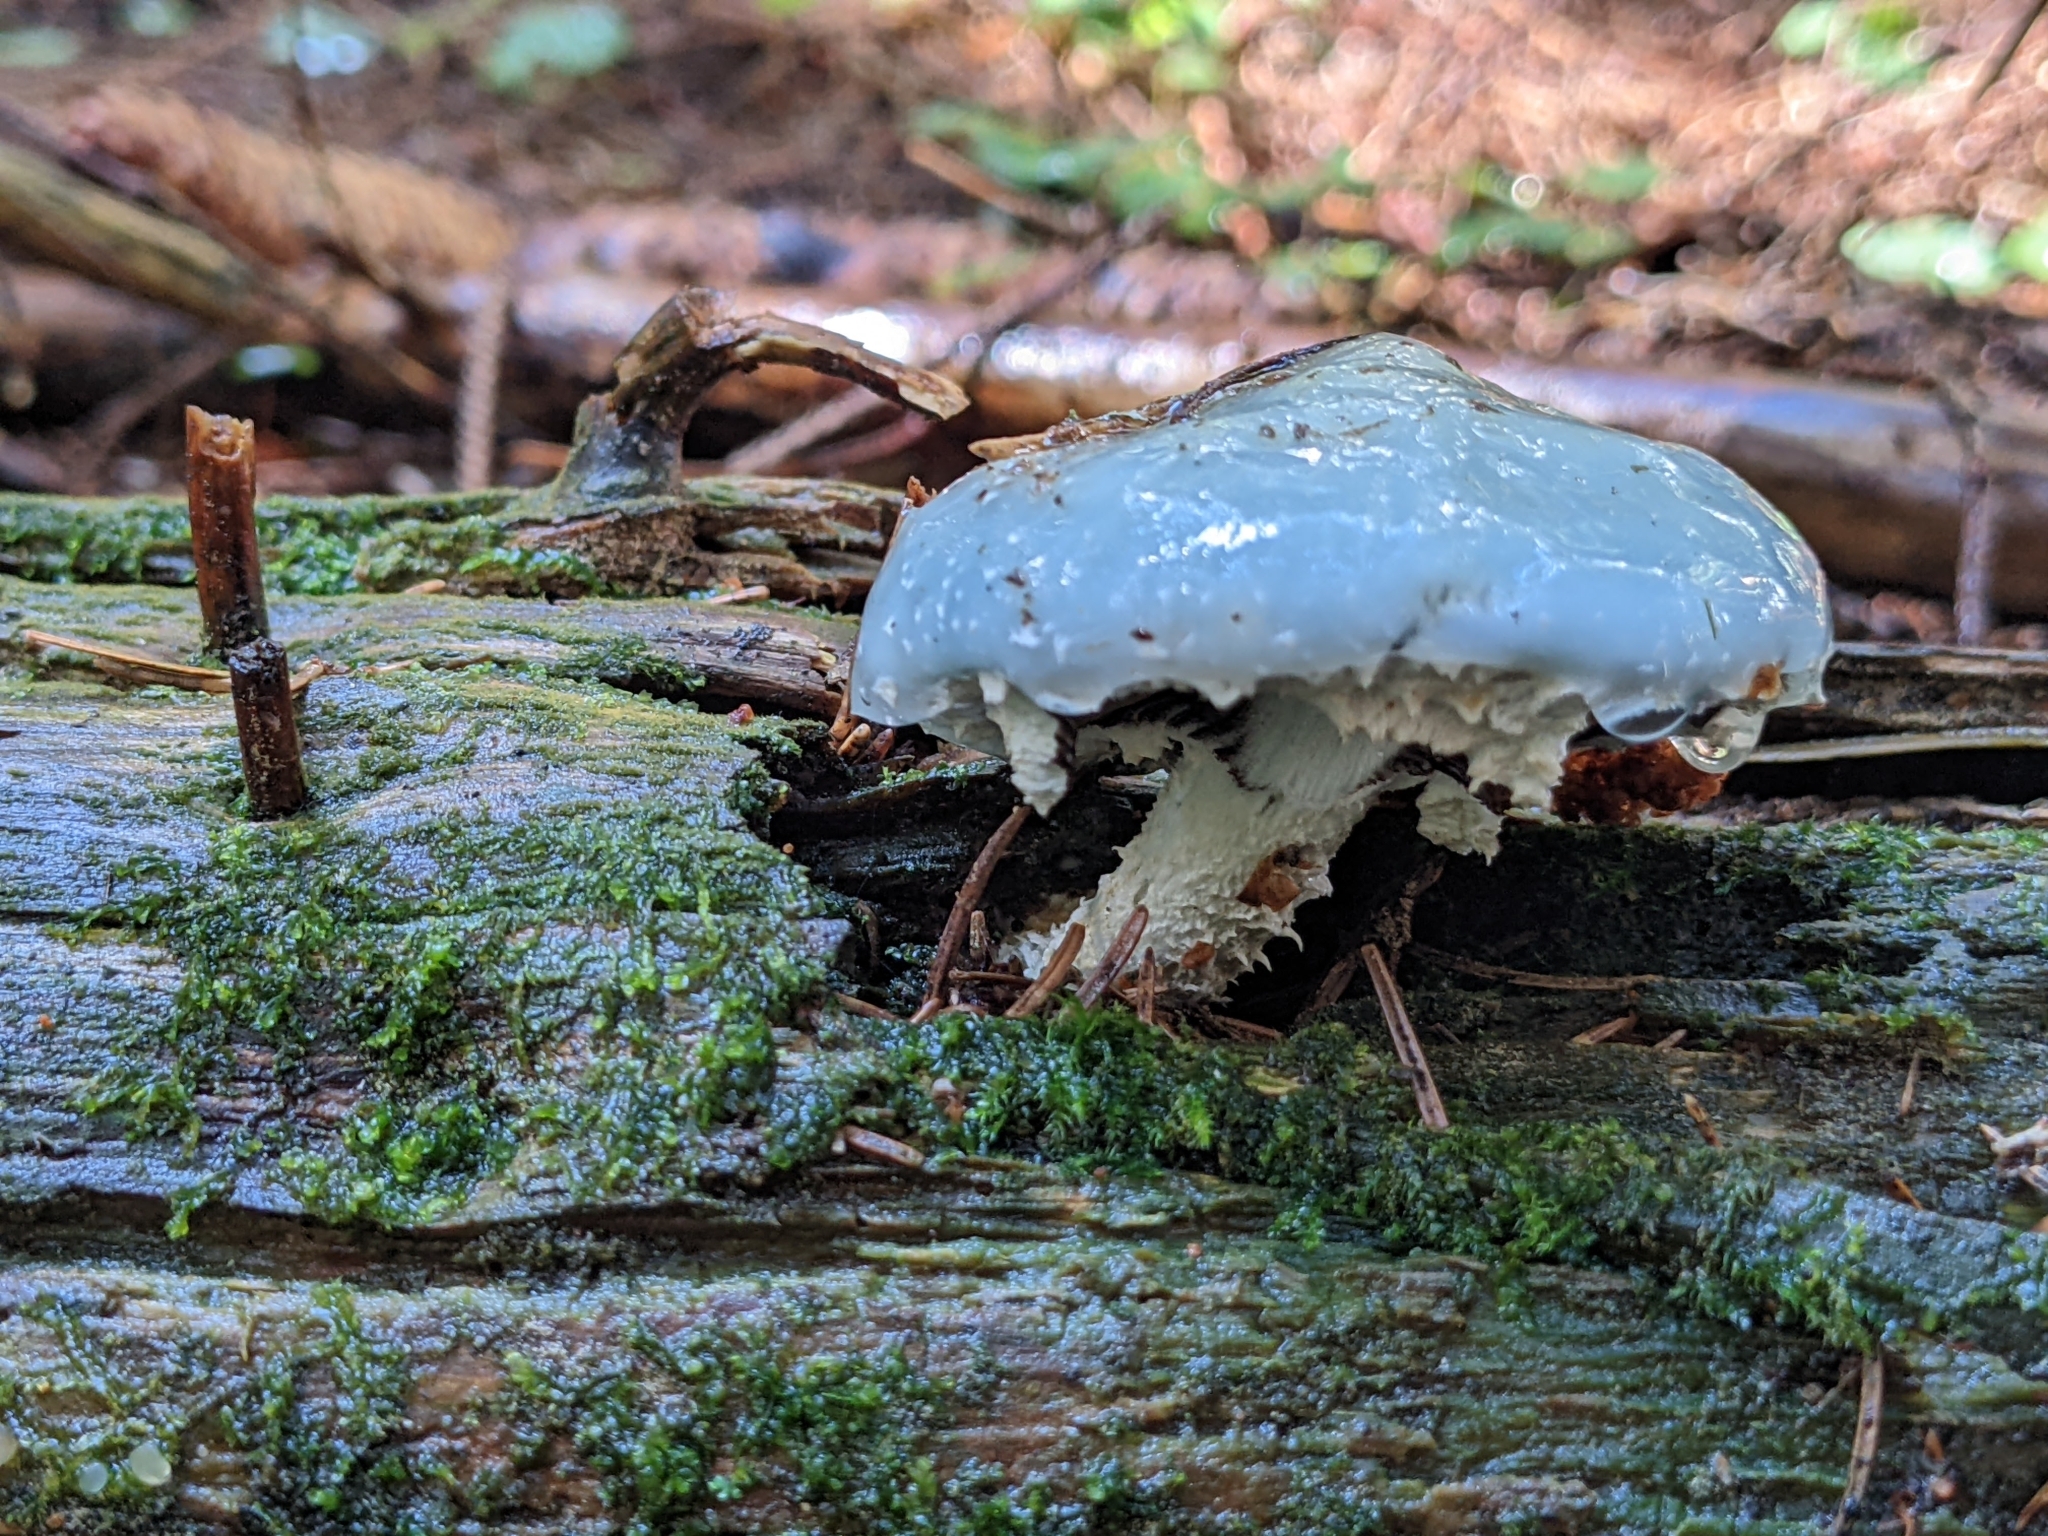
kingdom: Fungi
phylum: Basidiomycota
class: Agaricomycetes
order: Agaricales
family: Strophariaceae
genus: Stropharia
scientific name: Stropharia aeruginosa
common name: Verdigris roundhead
